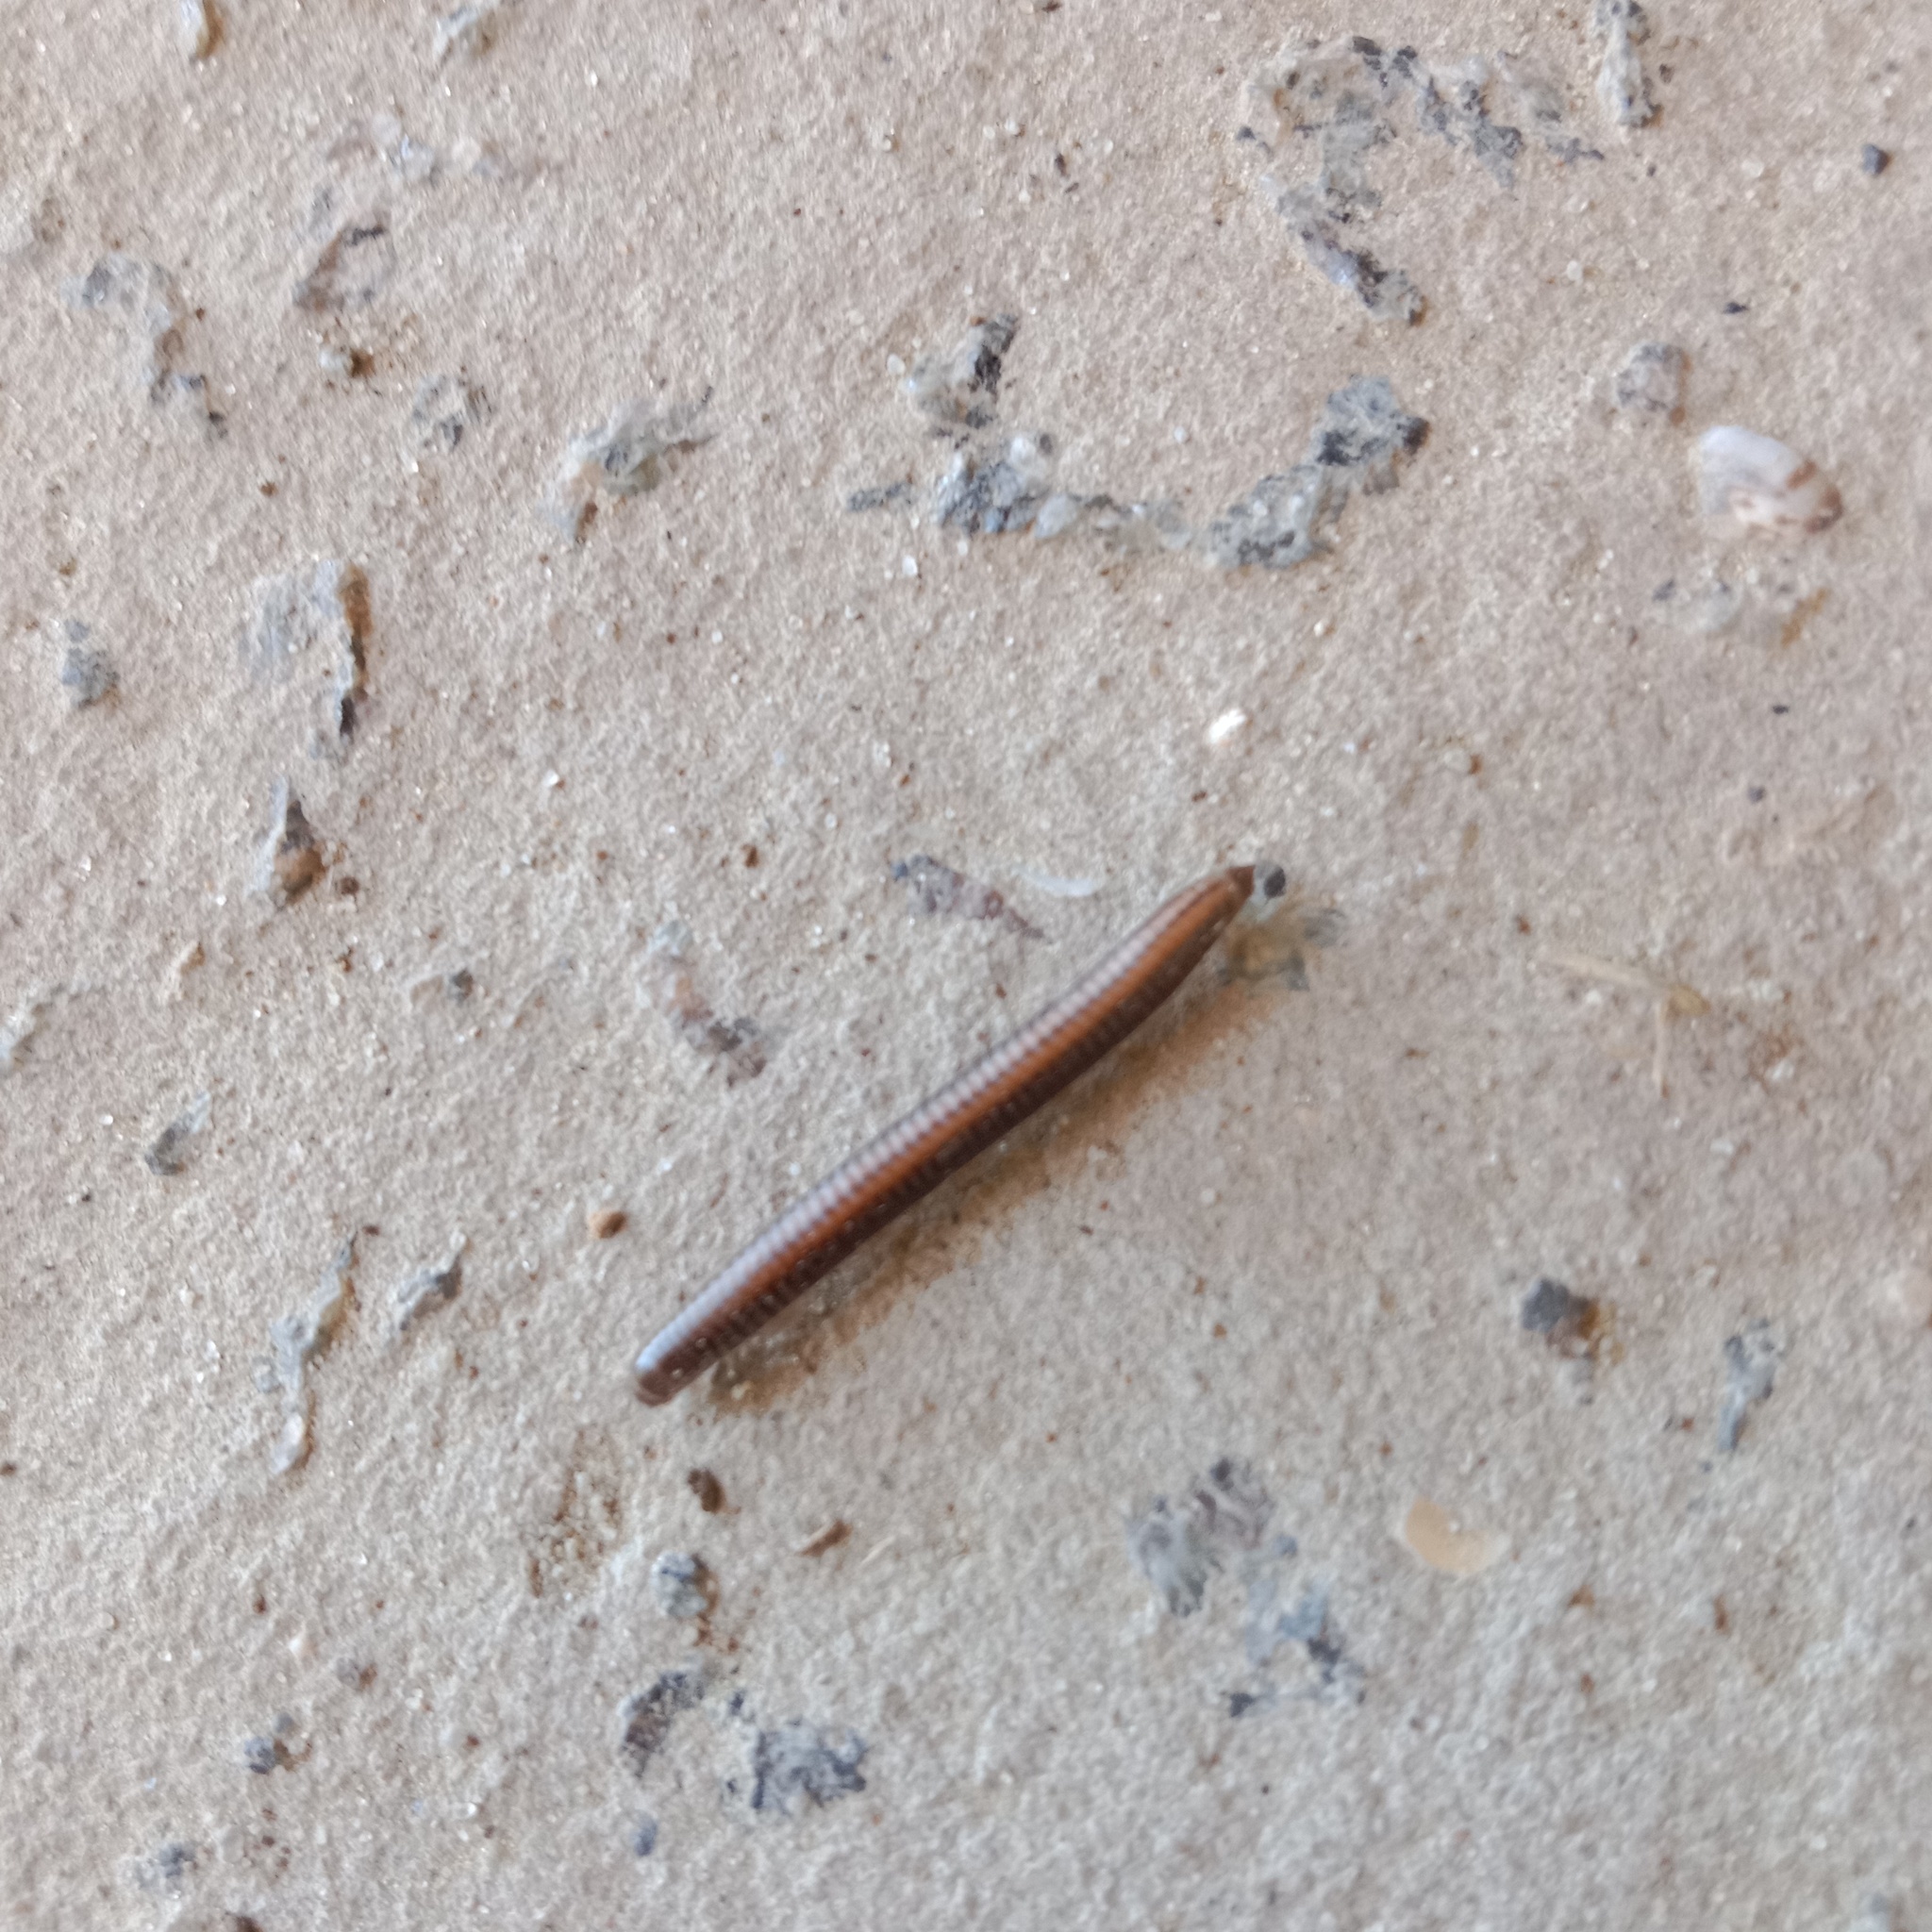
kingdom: Animalia
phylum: Arthropoda
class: Diplopoda
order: Julida
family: Julidae
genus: Ommatoiulus
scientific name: Ommatoiulus sabulosus
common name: Striped millipede
